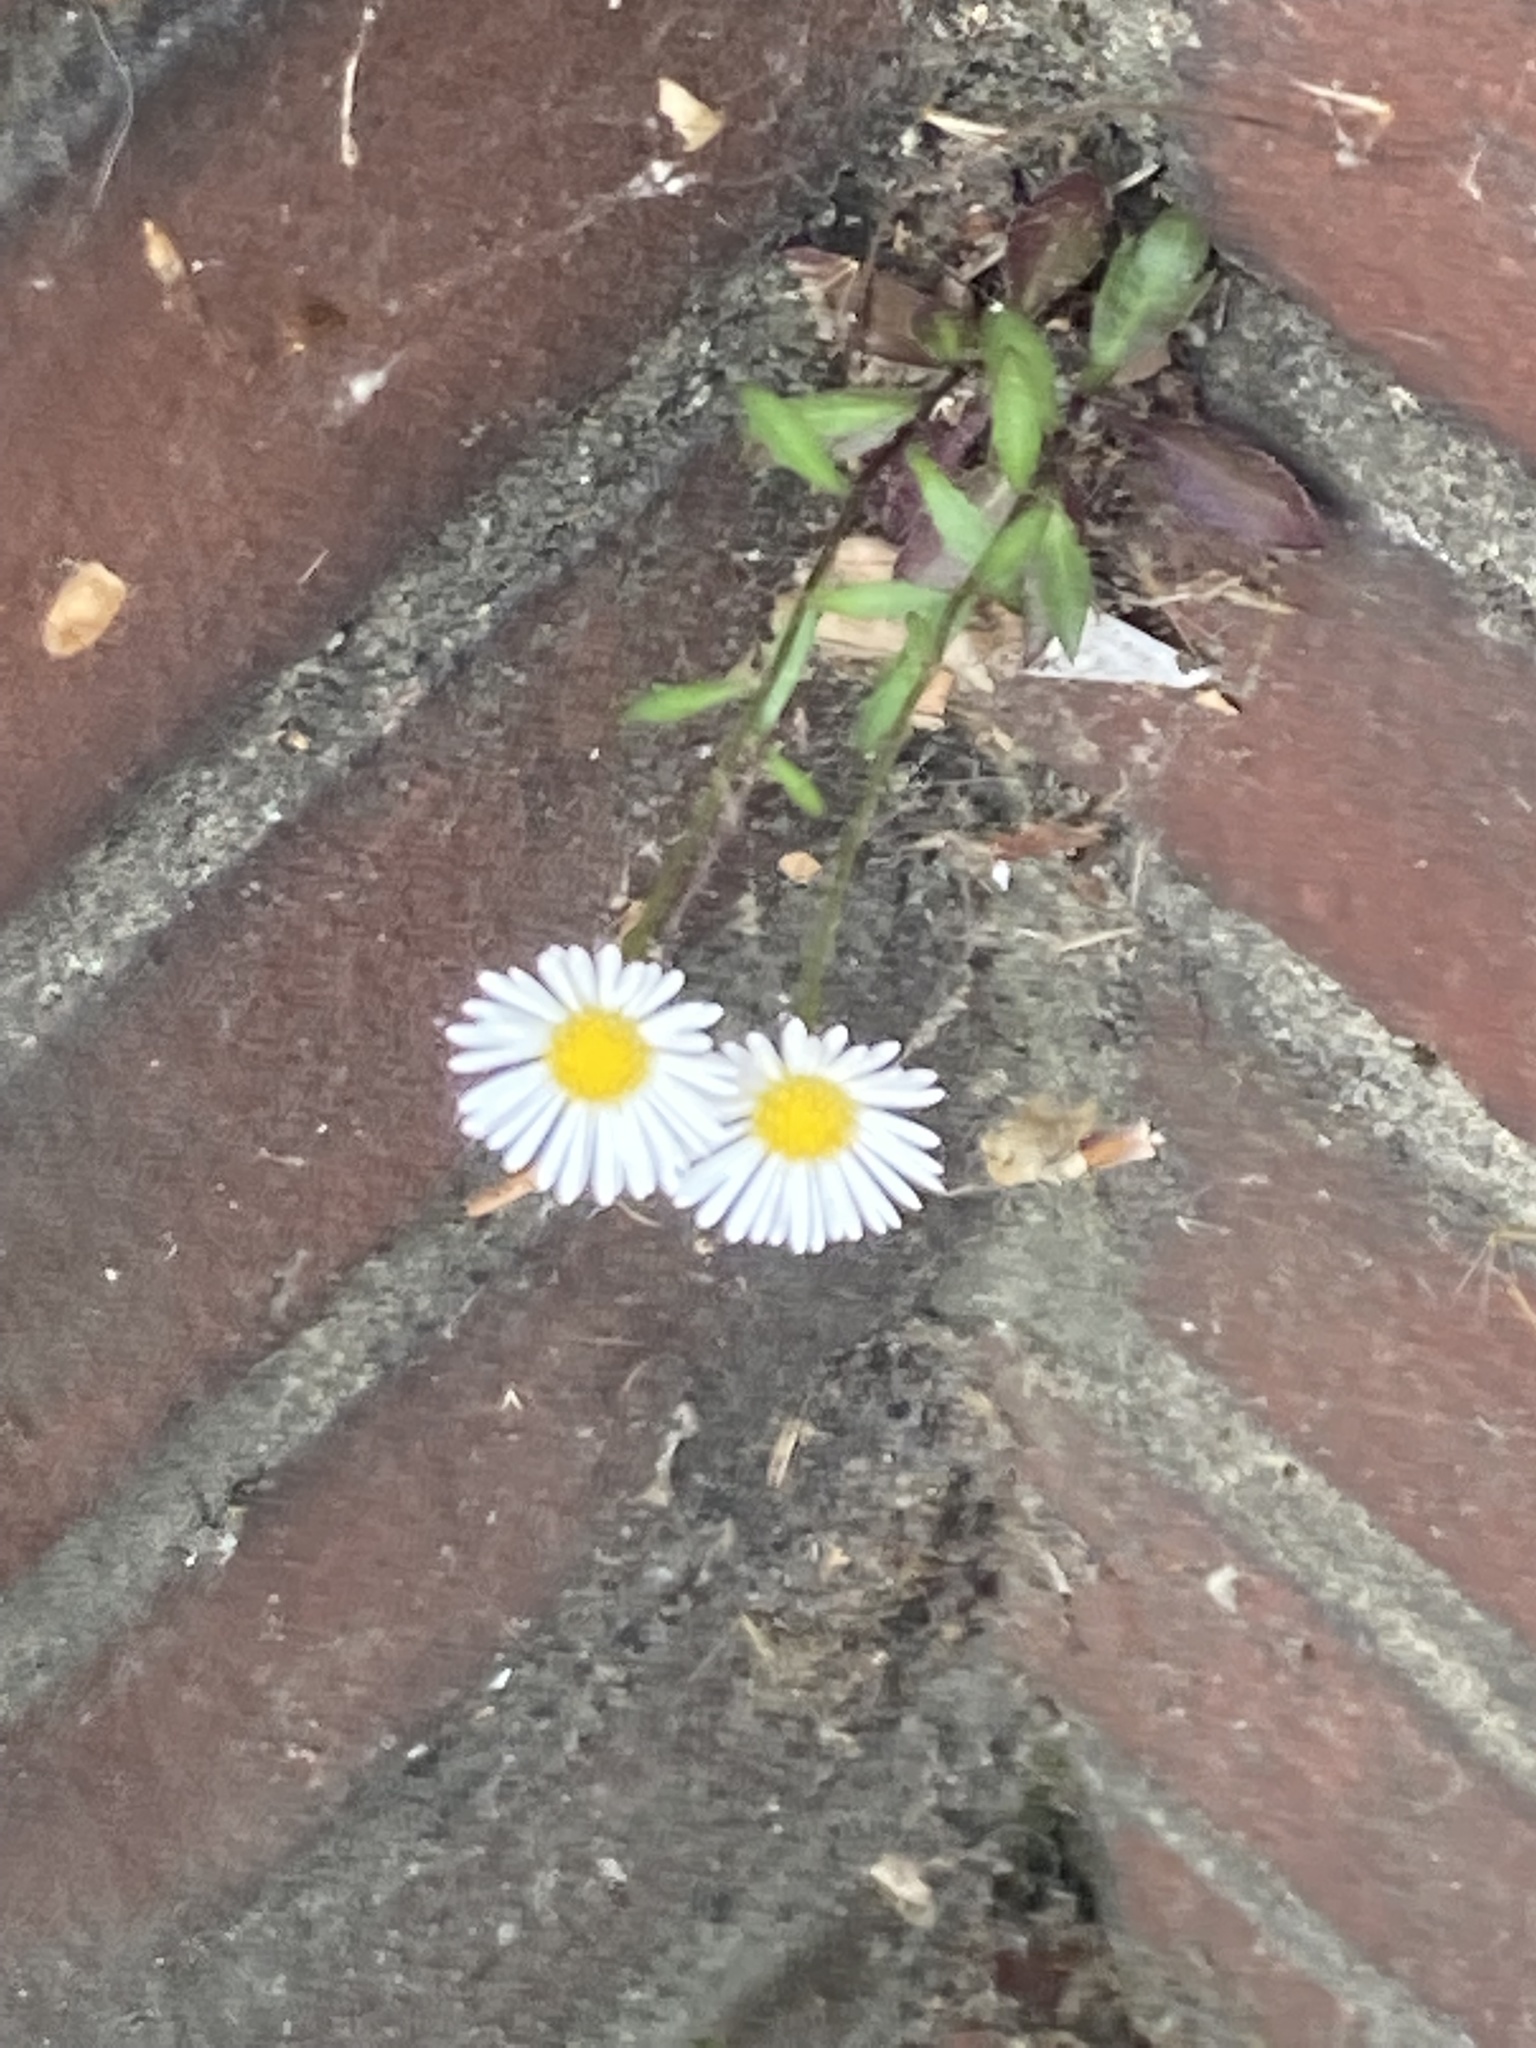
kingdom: Plantae
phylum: Tracheophyta
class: Magnoliopsida
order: Asterales
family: Asteraceae
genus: Erigeron
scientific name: Erigeron karvinskianus
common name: Mexican fleabane
